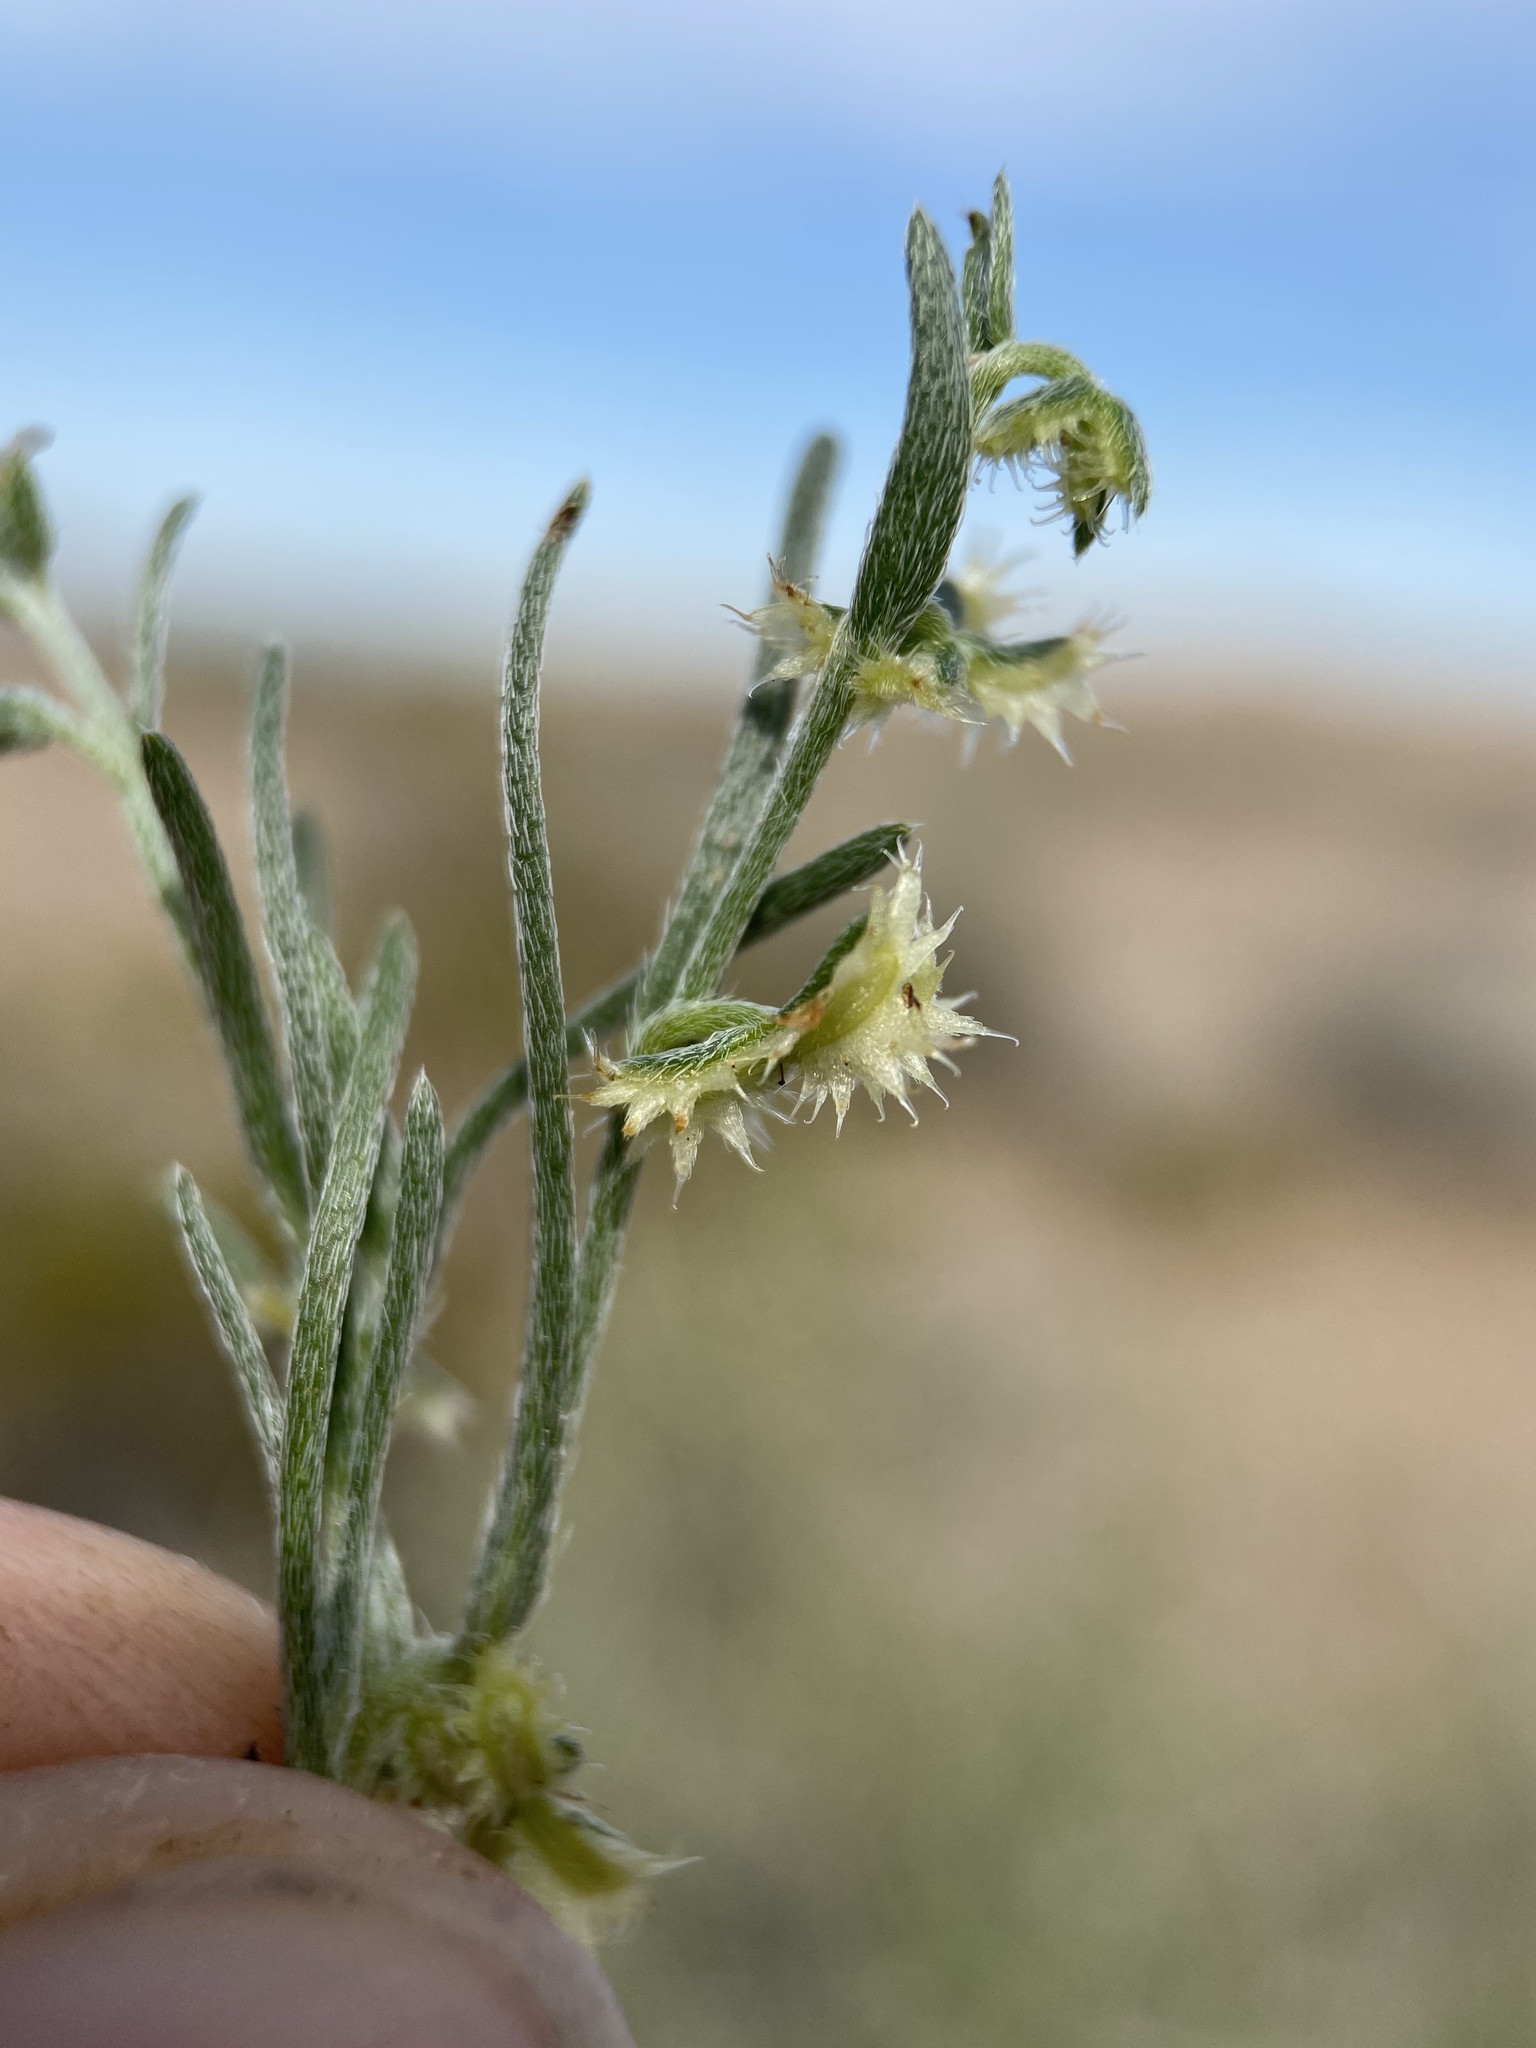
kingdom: Plantae
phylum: Tracheophyta
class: Magnoliopsida
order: Boraginales
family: Boraginaceae
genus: Pectocarya
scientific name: Pectocarya platycarpa
